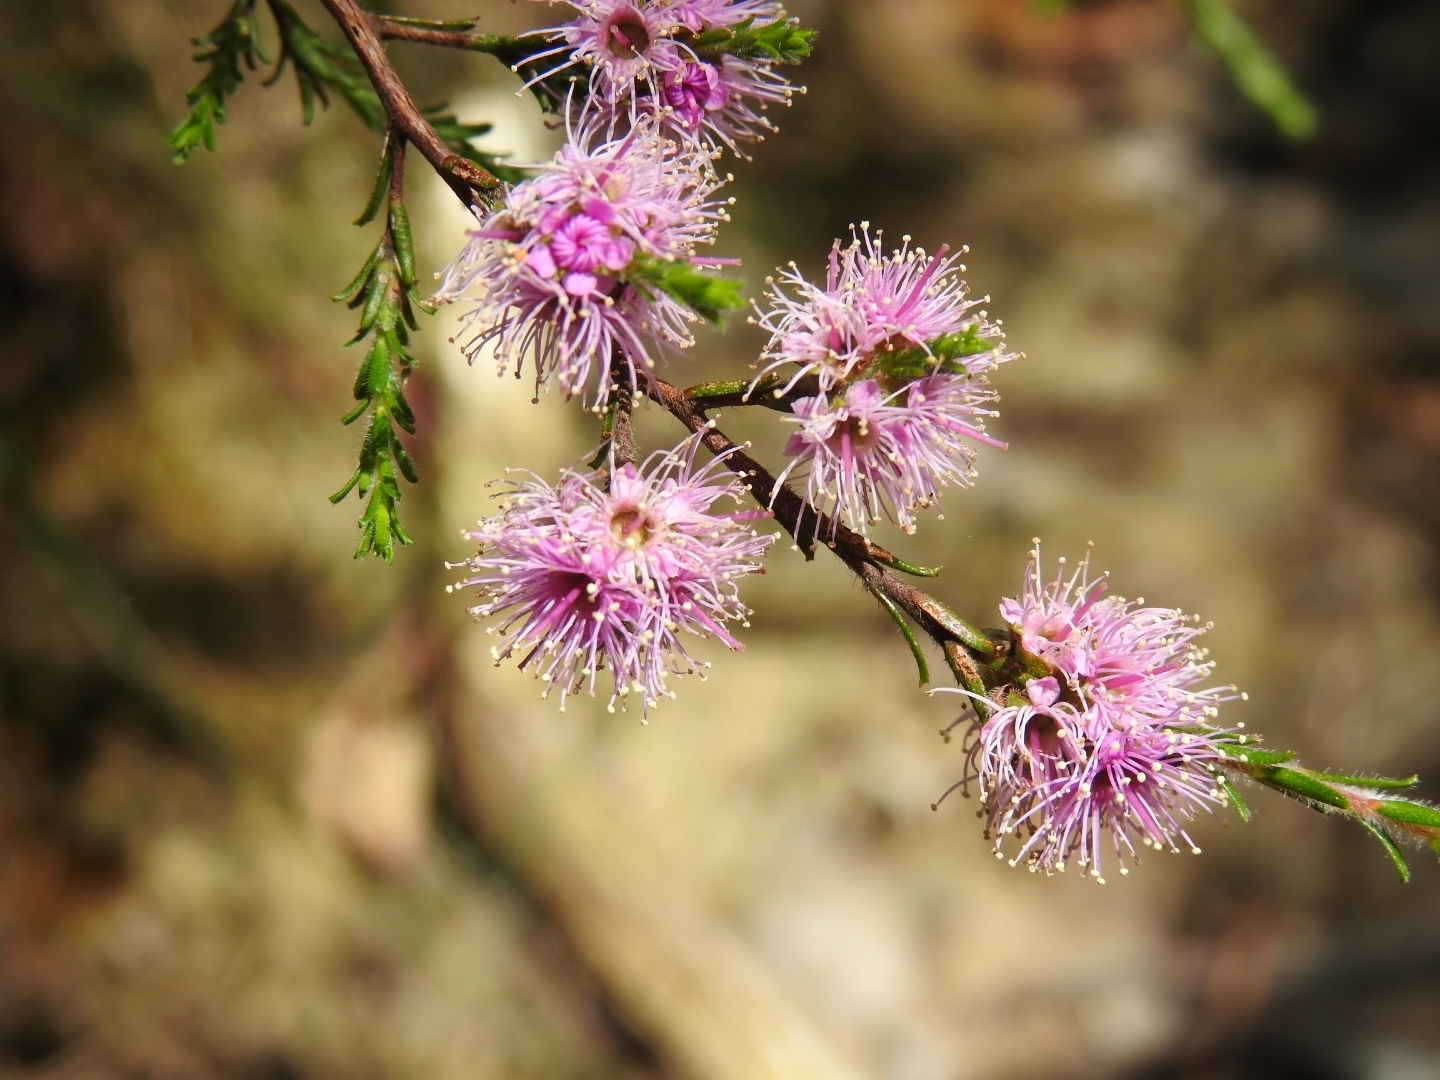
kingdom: Plantae
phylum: Tracheophyta
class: Magnoliopsida
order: Myrtales
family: Myrtaceae
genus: Kunzea
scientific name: Kunzea parvifolia
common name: Violet kunzea
